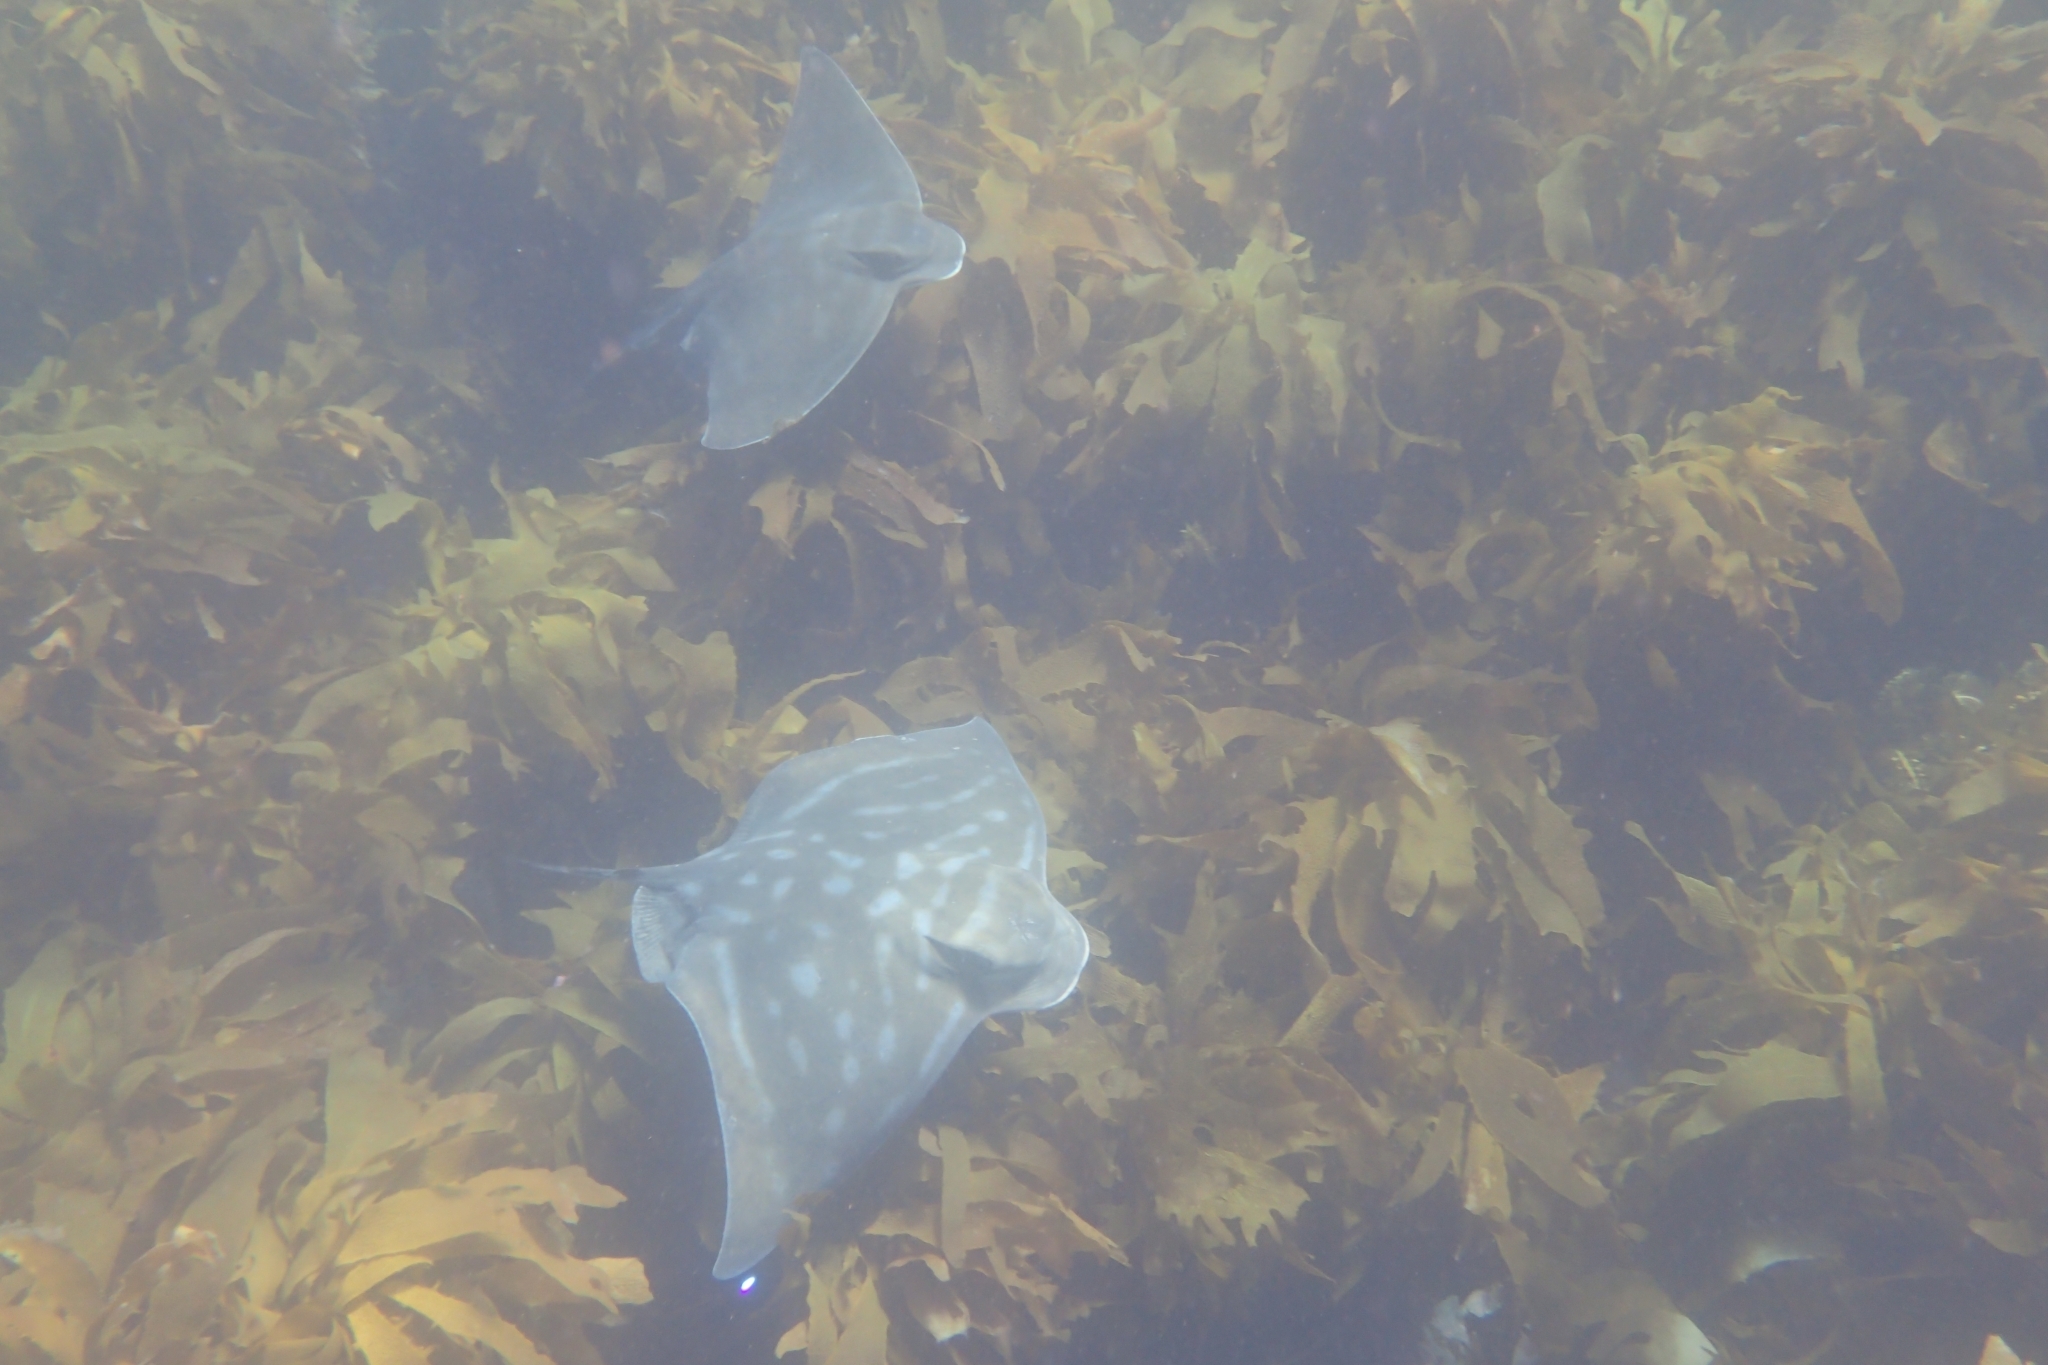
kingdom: Animalia
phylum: Chordata
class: Elasmobranchii
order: Myliobatiformes
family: Myliobatidae
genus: Myliobatis
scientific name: Myliobatis tenuicaudatus
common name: Eagle ray
